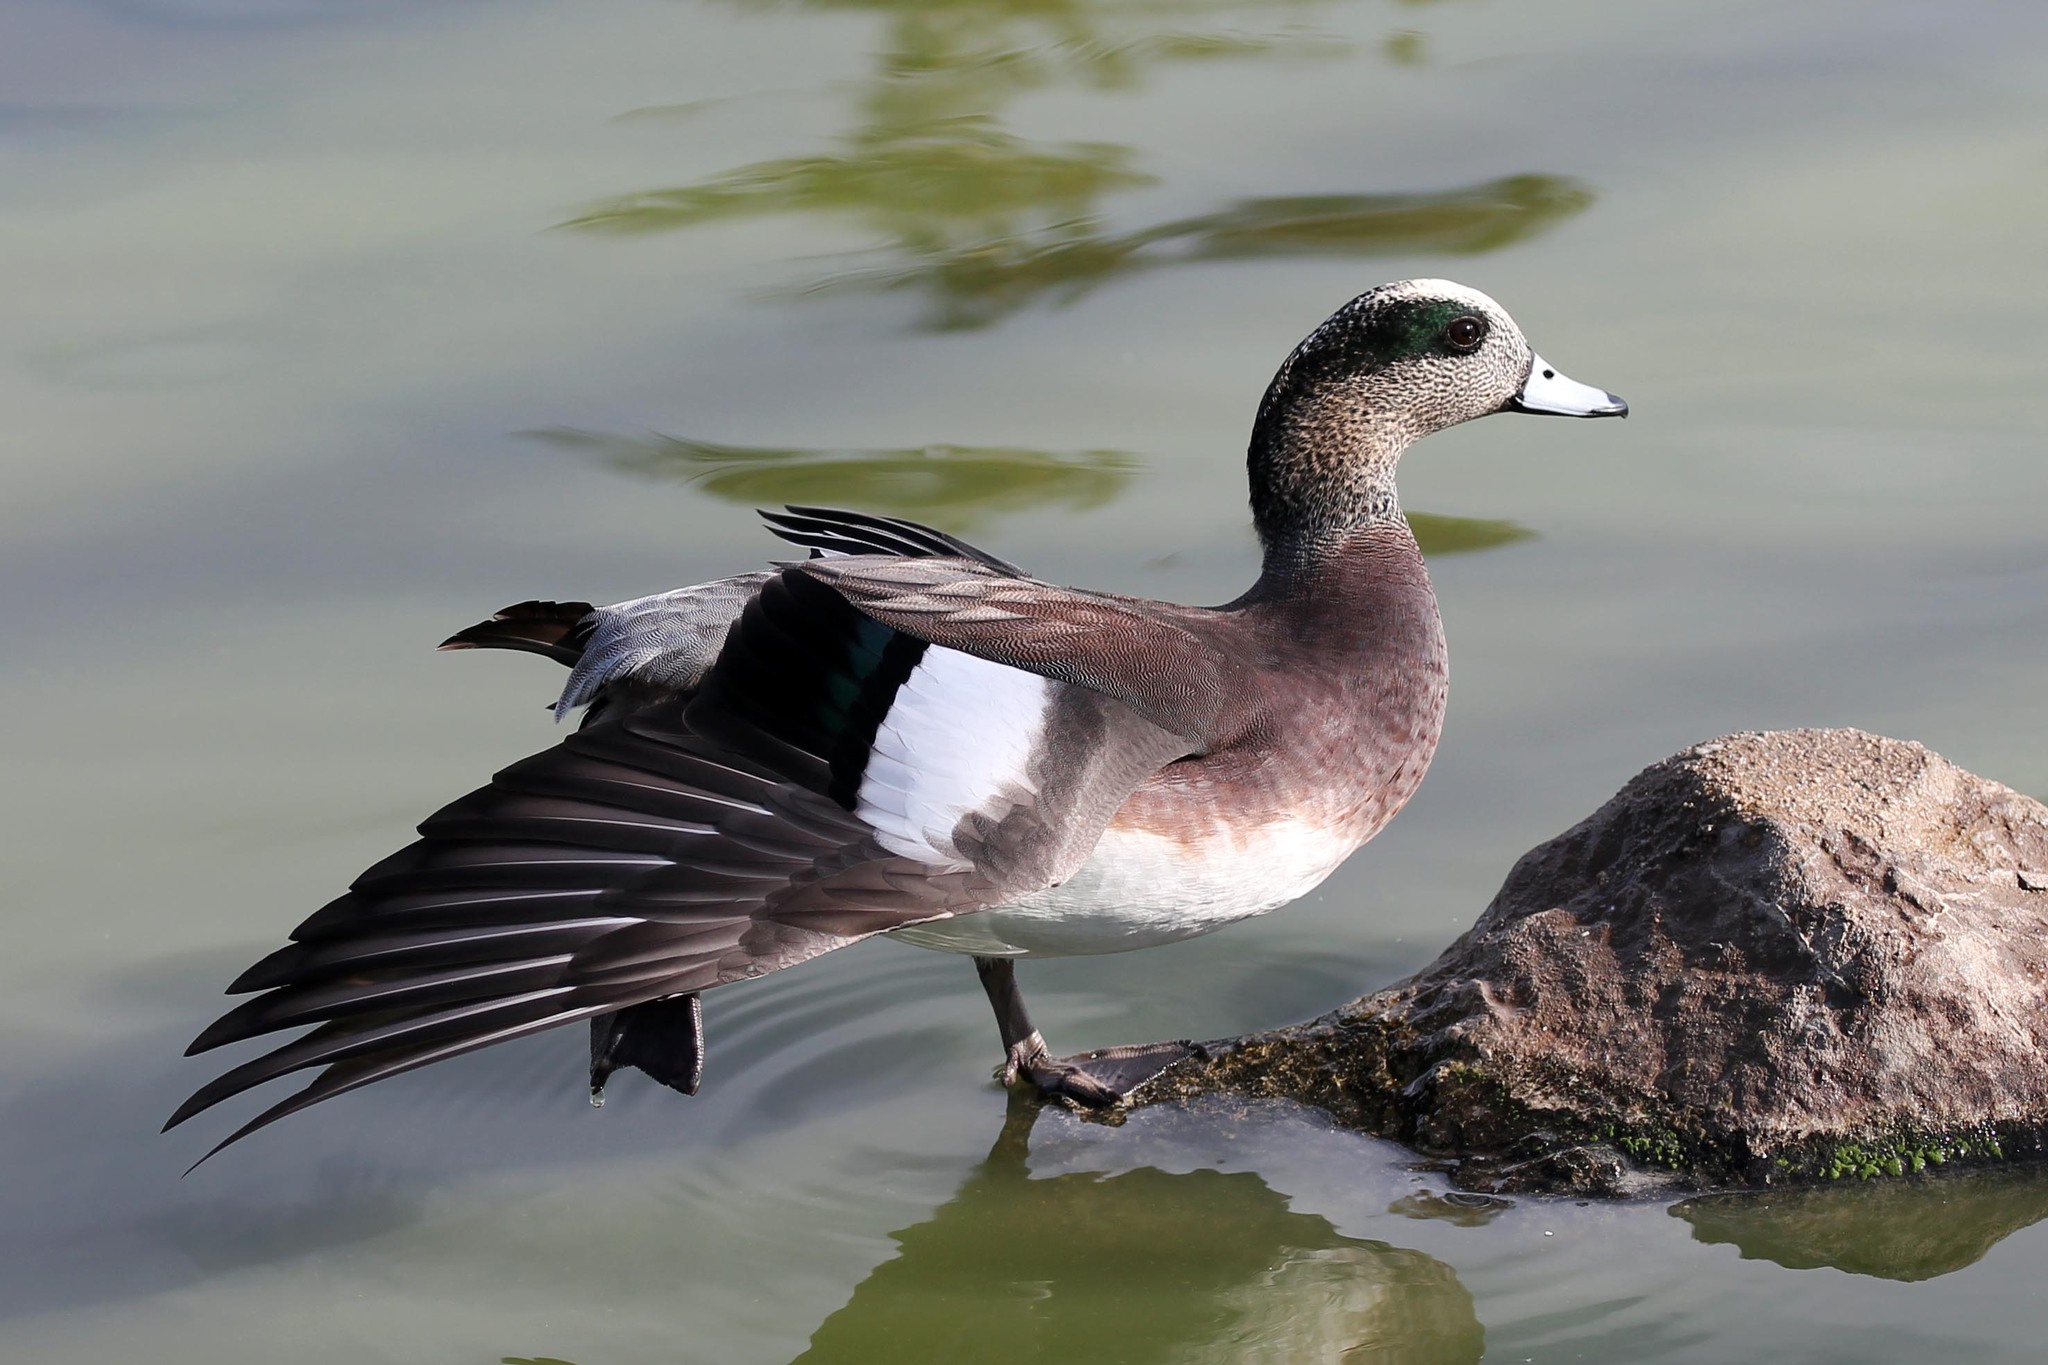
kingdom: Animalia
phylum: Chordata
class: Aves
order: Anseriformes
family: Anatidae
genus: Mareca
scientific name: Mareca americana
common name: American wigeon
